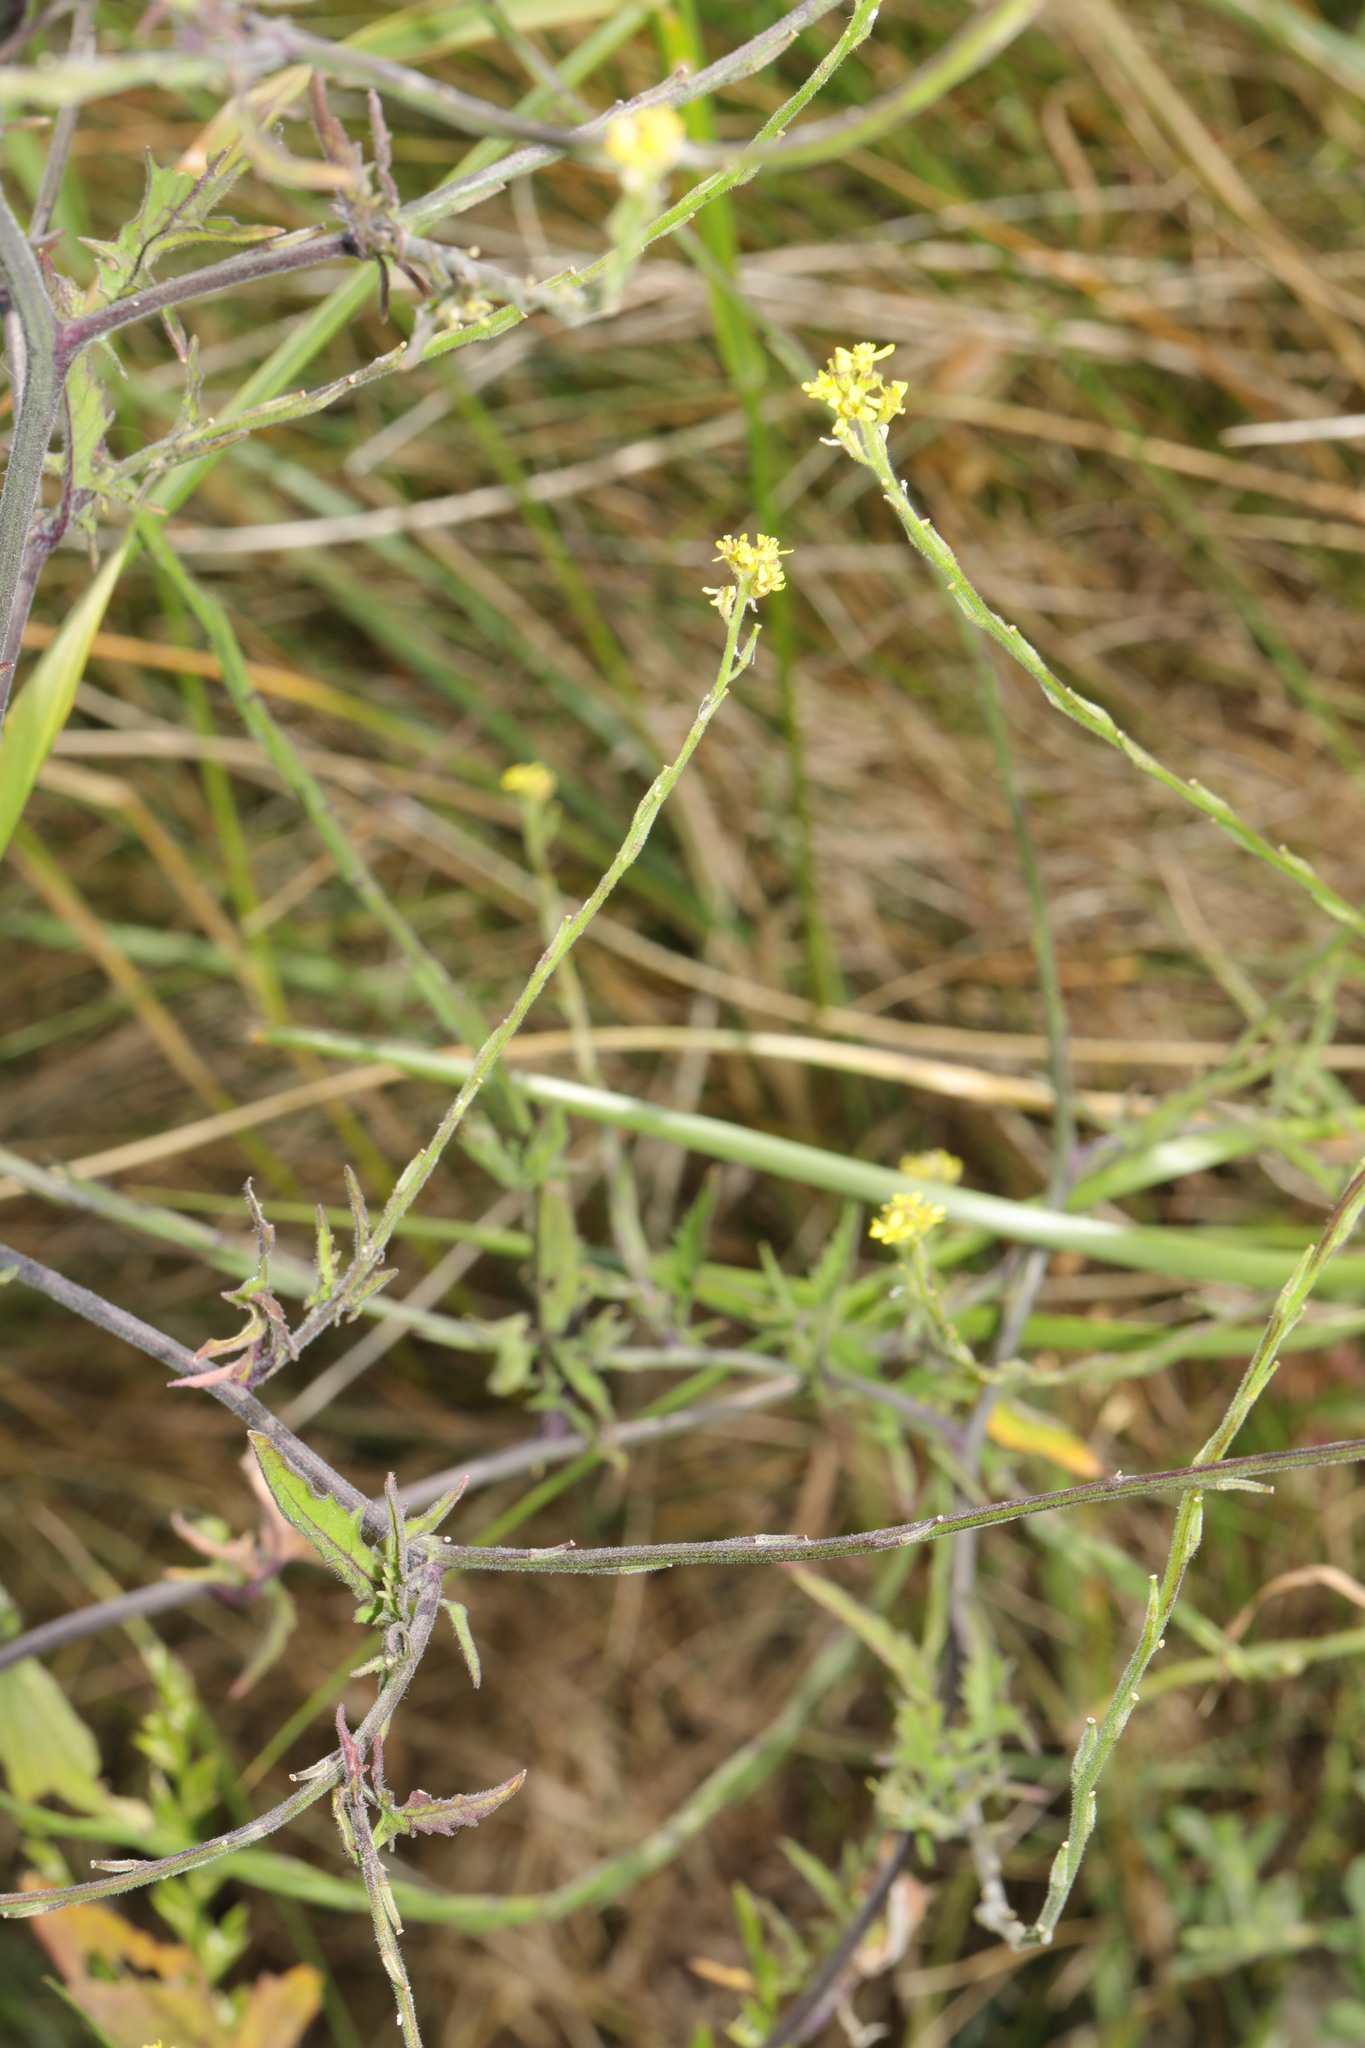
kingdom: Plantae
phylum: Tracheophyta
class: Magnoliopsida
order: Brassicales
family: Brassicaceae
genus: Sisymbrium
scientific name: Sisymbrium officinale
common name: Hedge mustard
